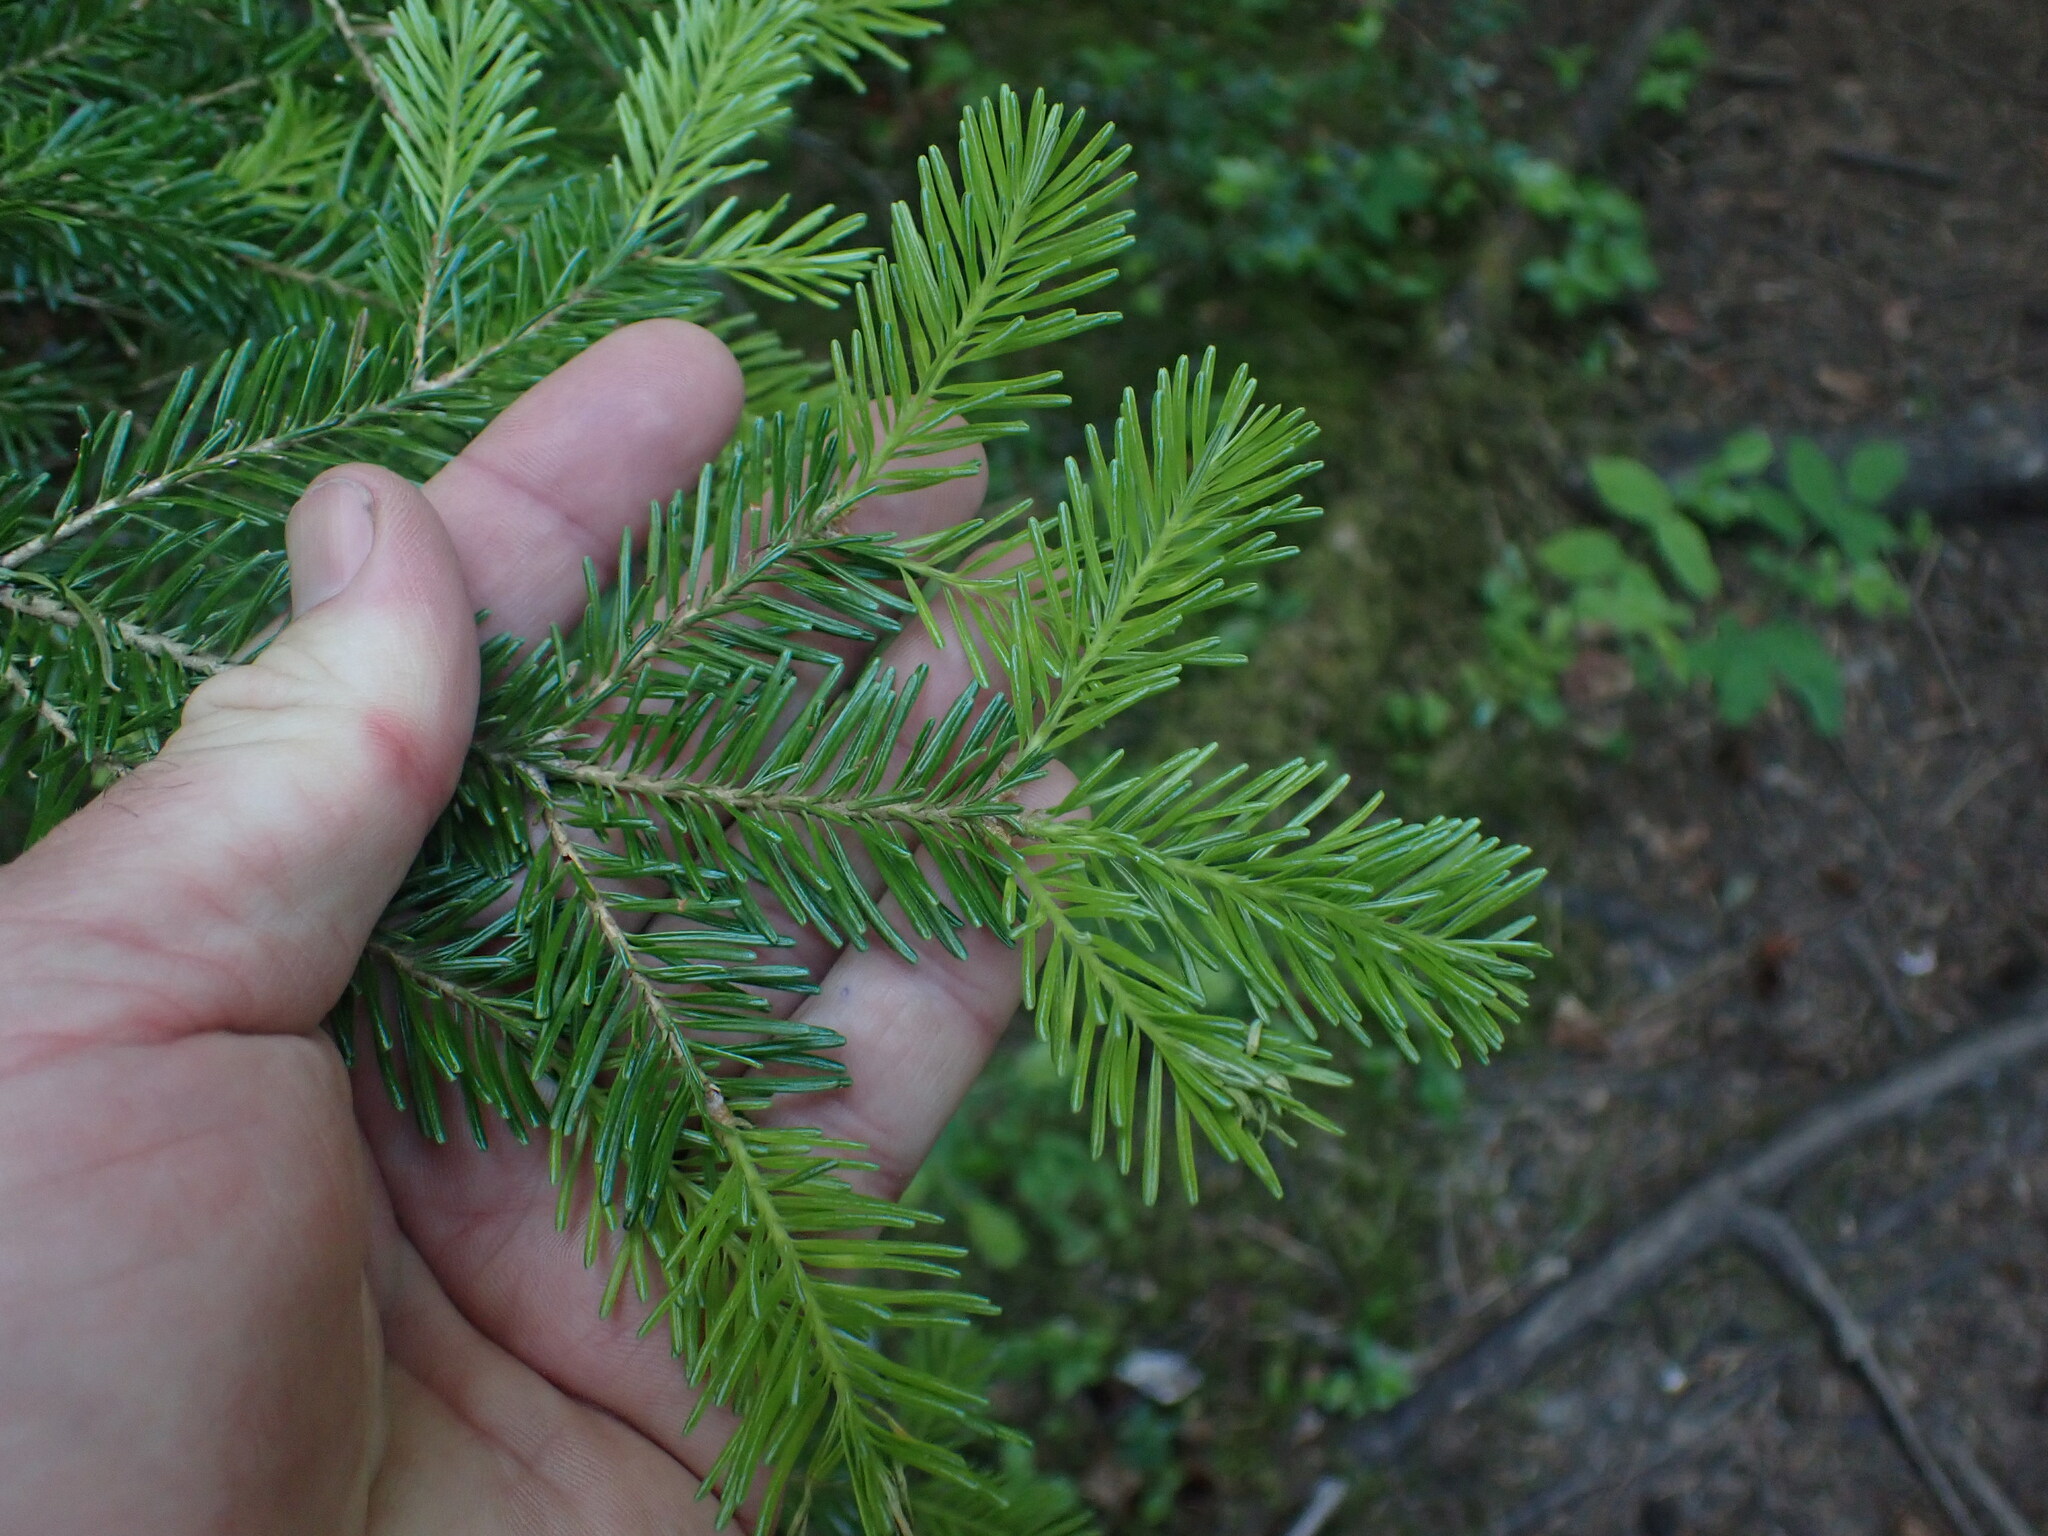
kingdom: Plantae
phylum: Tracheophyta
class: Pinopsida
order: Pinales
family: Pinaceae
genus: Abies
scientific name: Abies lasiocarpa
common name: Subalpine fir
